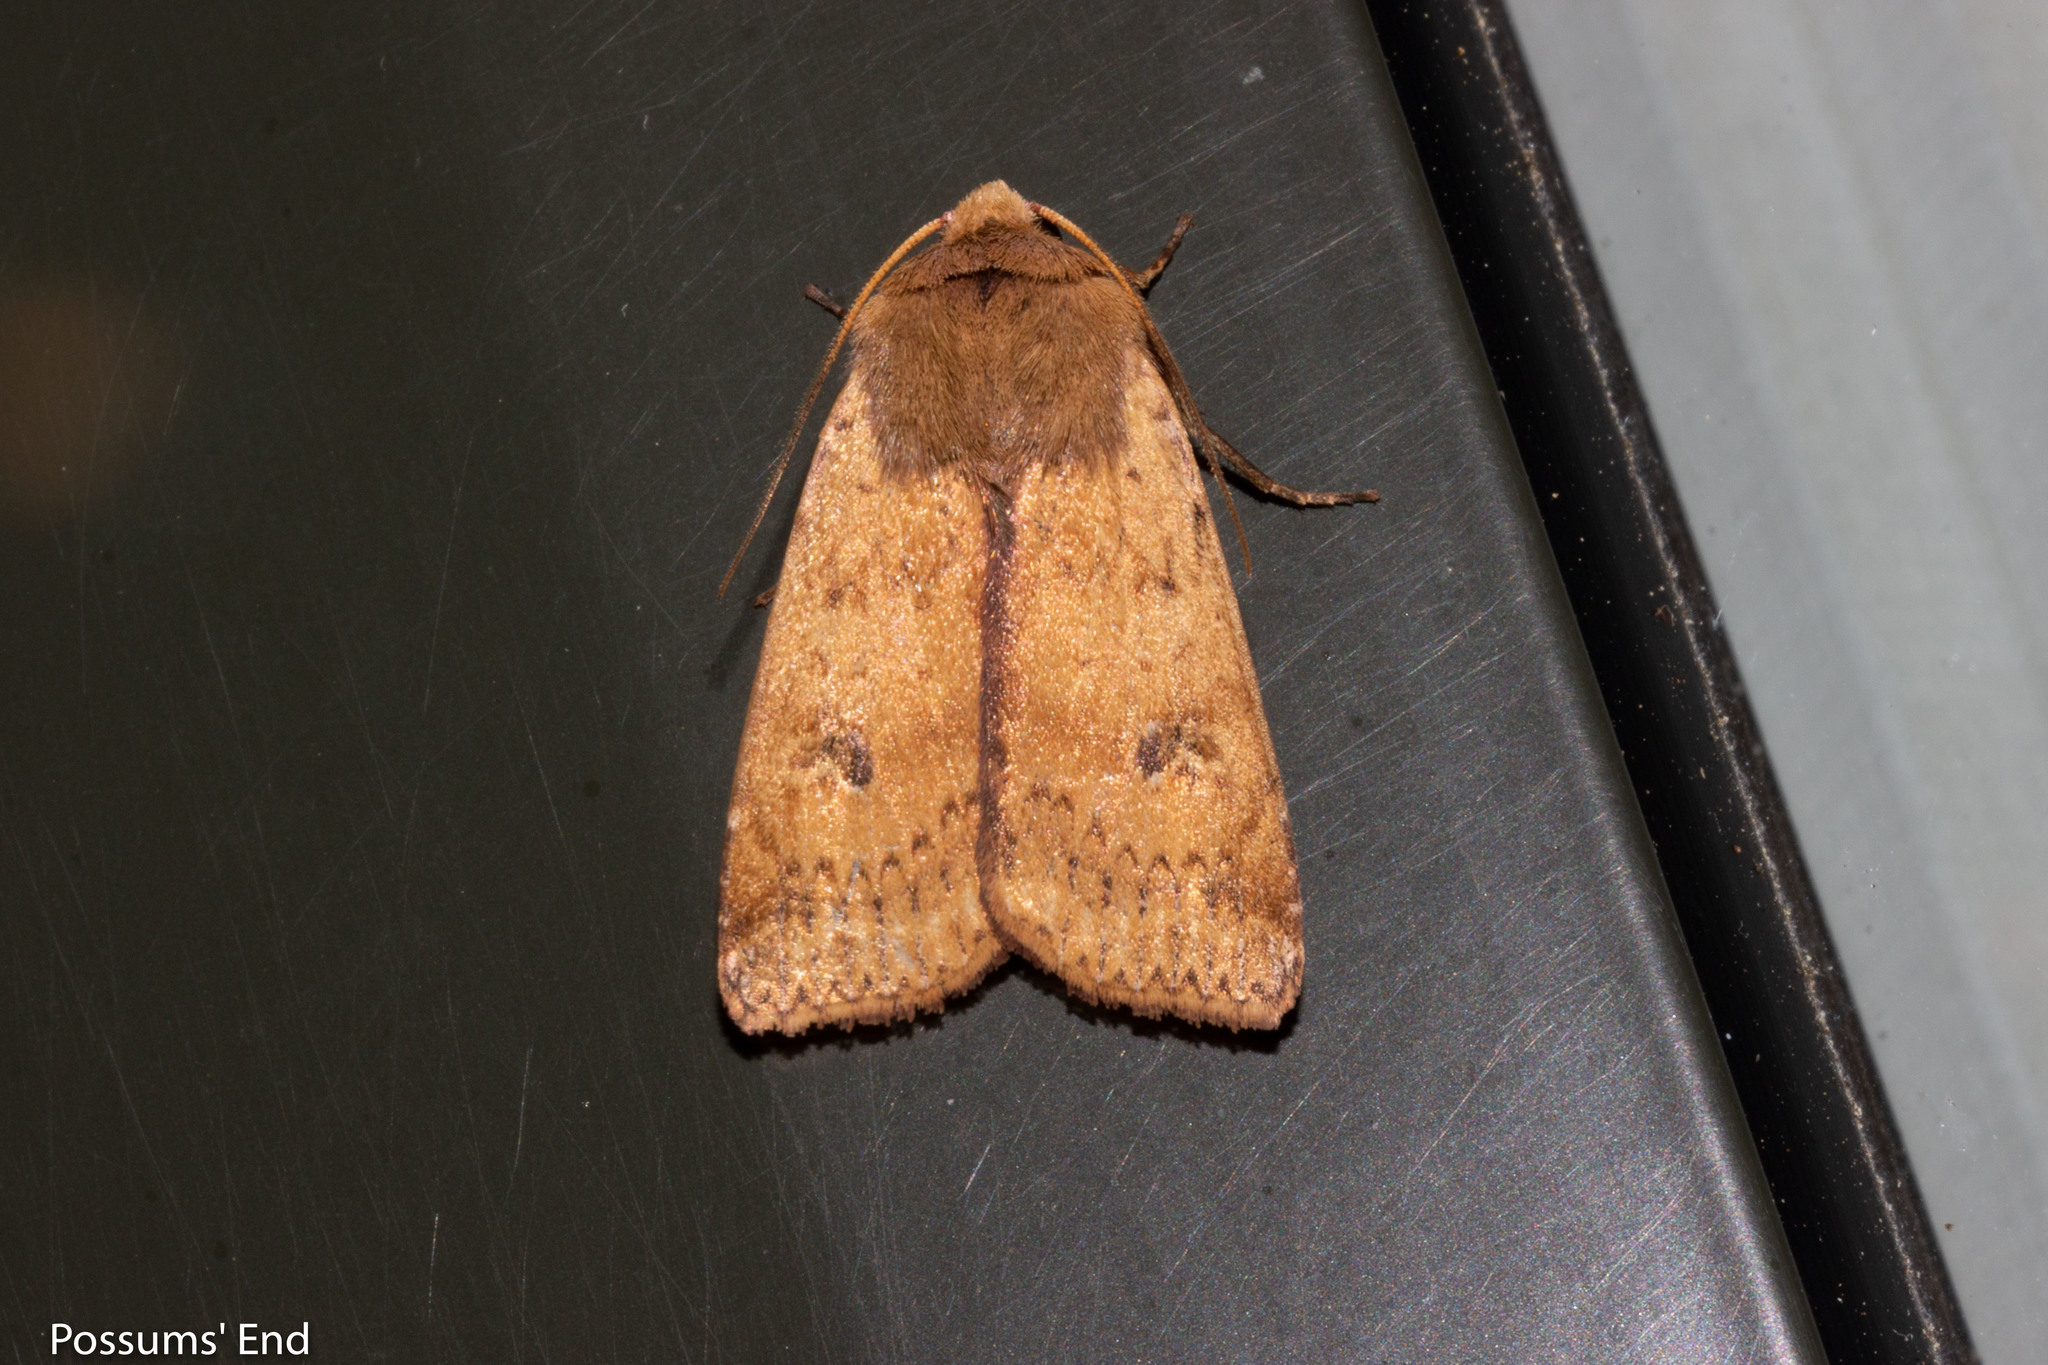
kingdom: Animalia
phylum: Arthropoda
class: Insecta
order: Lepidoptera
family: Noctuidae
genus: Diarsia
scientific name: Diarsia intermixta
